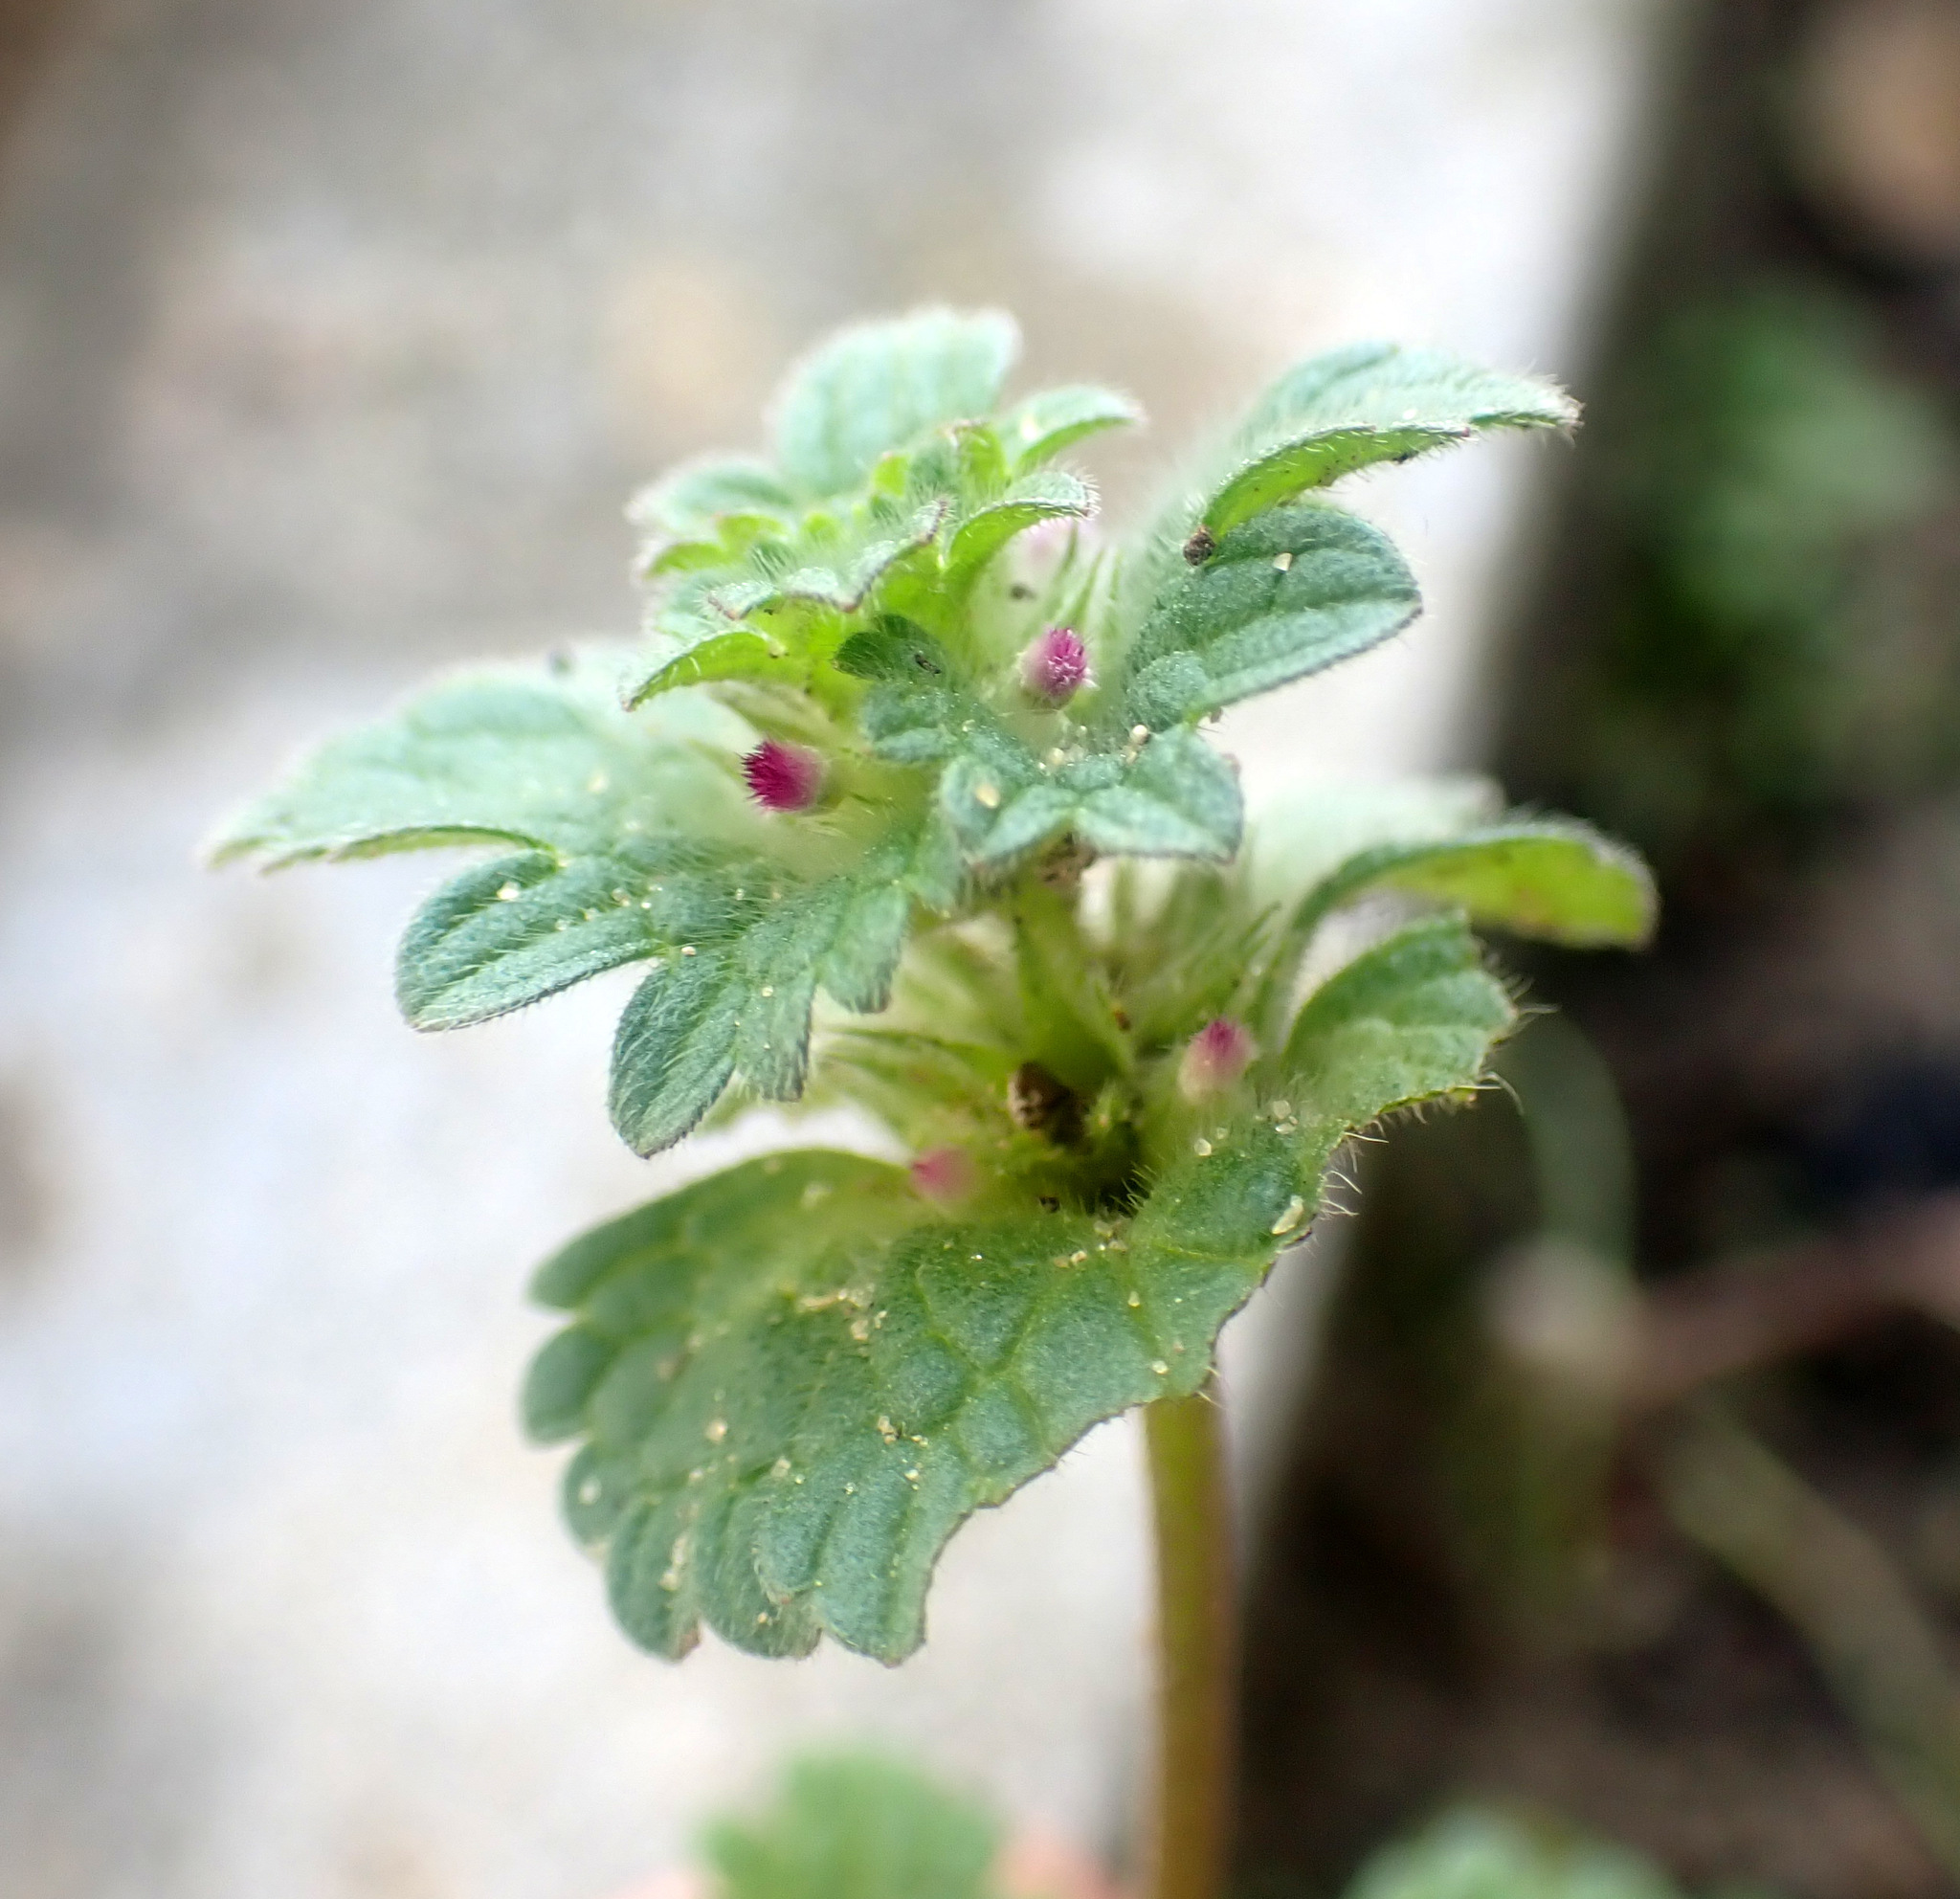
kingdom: Plantae
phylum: Tracheophyta
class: Magnoliopsida
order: Lamiales
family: Lamiaceae
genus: Lamium
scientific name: Lamium amplexicaule
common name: Henbit dead-nettle
